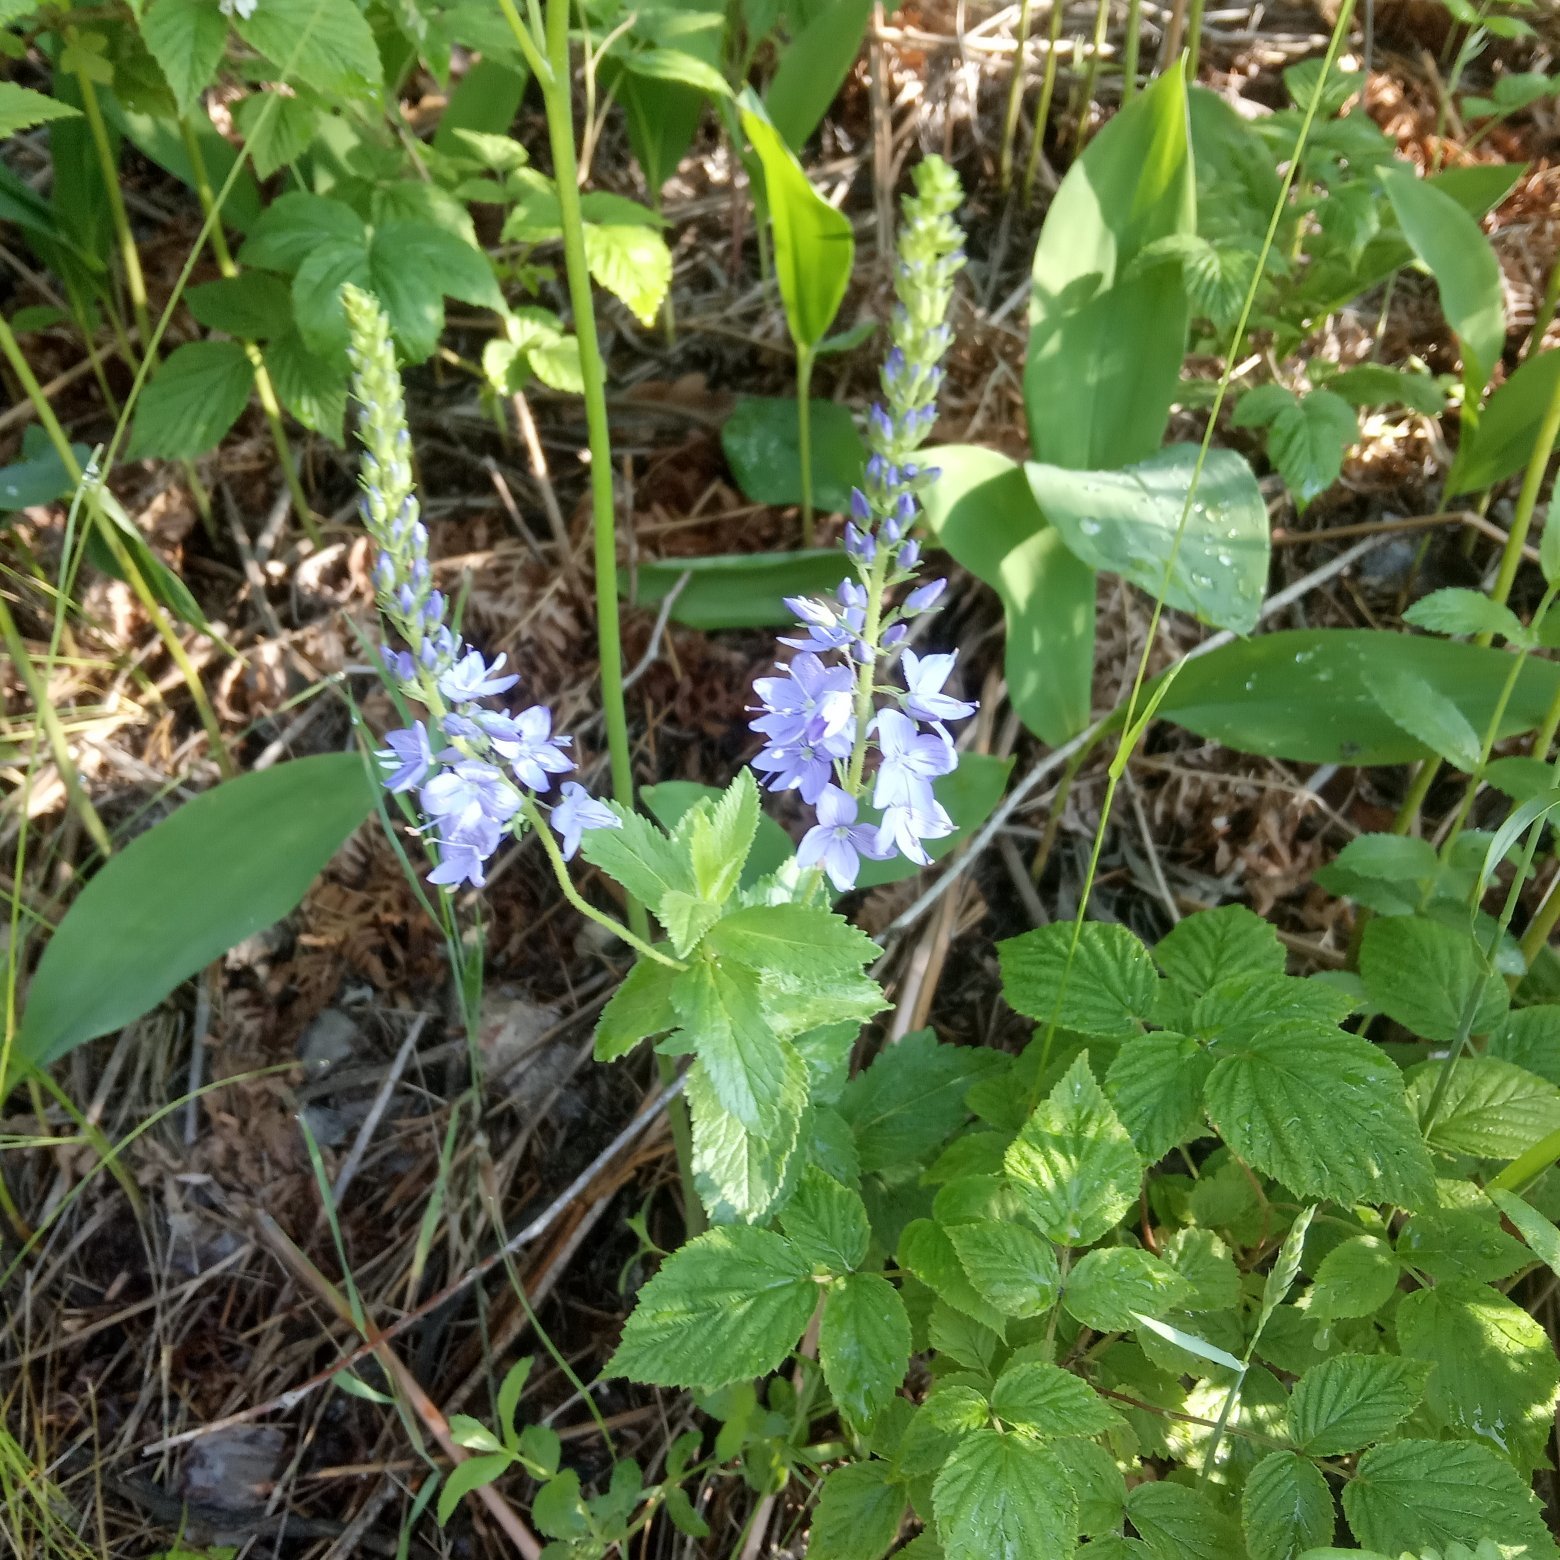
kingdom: Plantae
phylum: Tracheophyta
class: Magnoliopsida
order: Lamiales
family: Plantaginaceae
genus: Veronica
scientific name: Veronica teucrium
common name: Large speedwell
